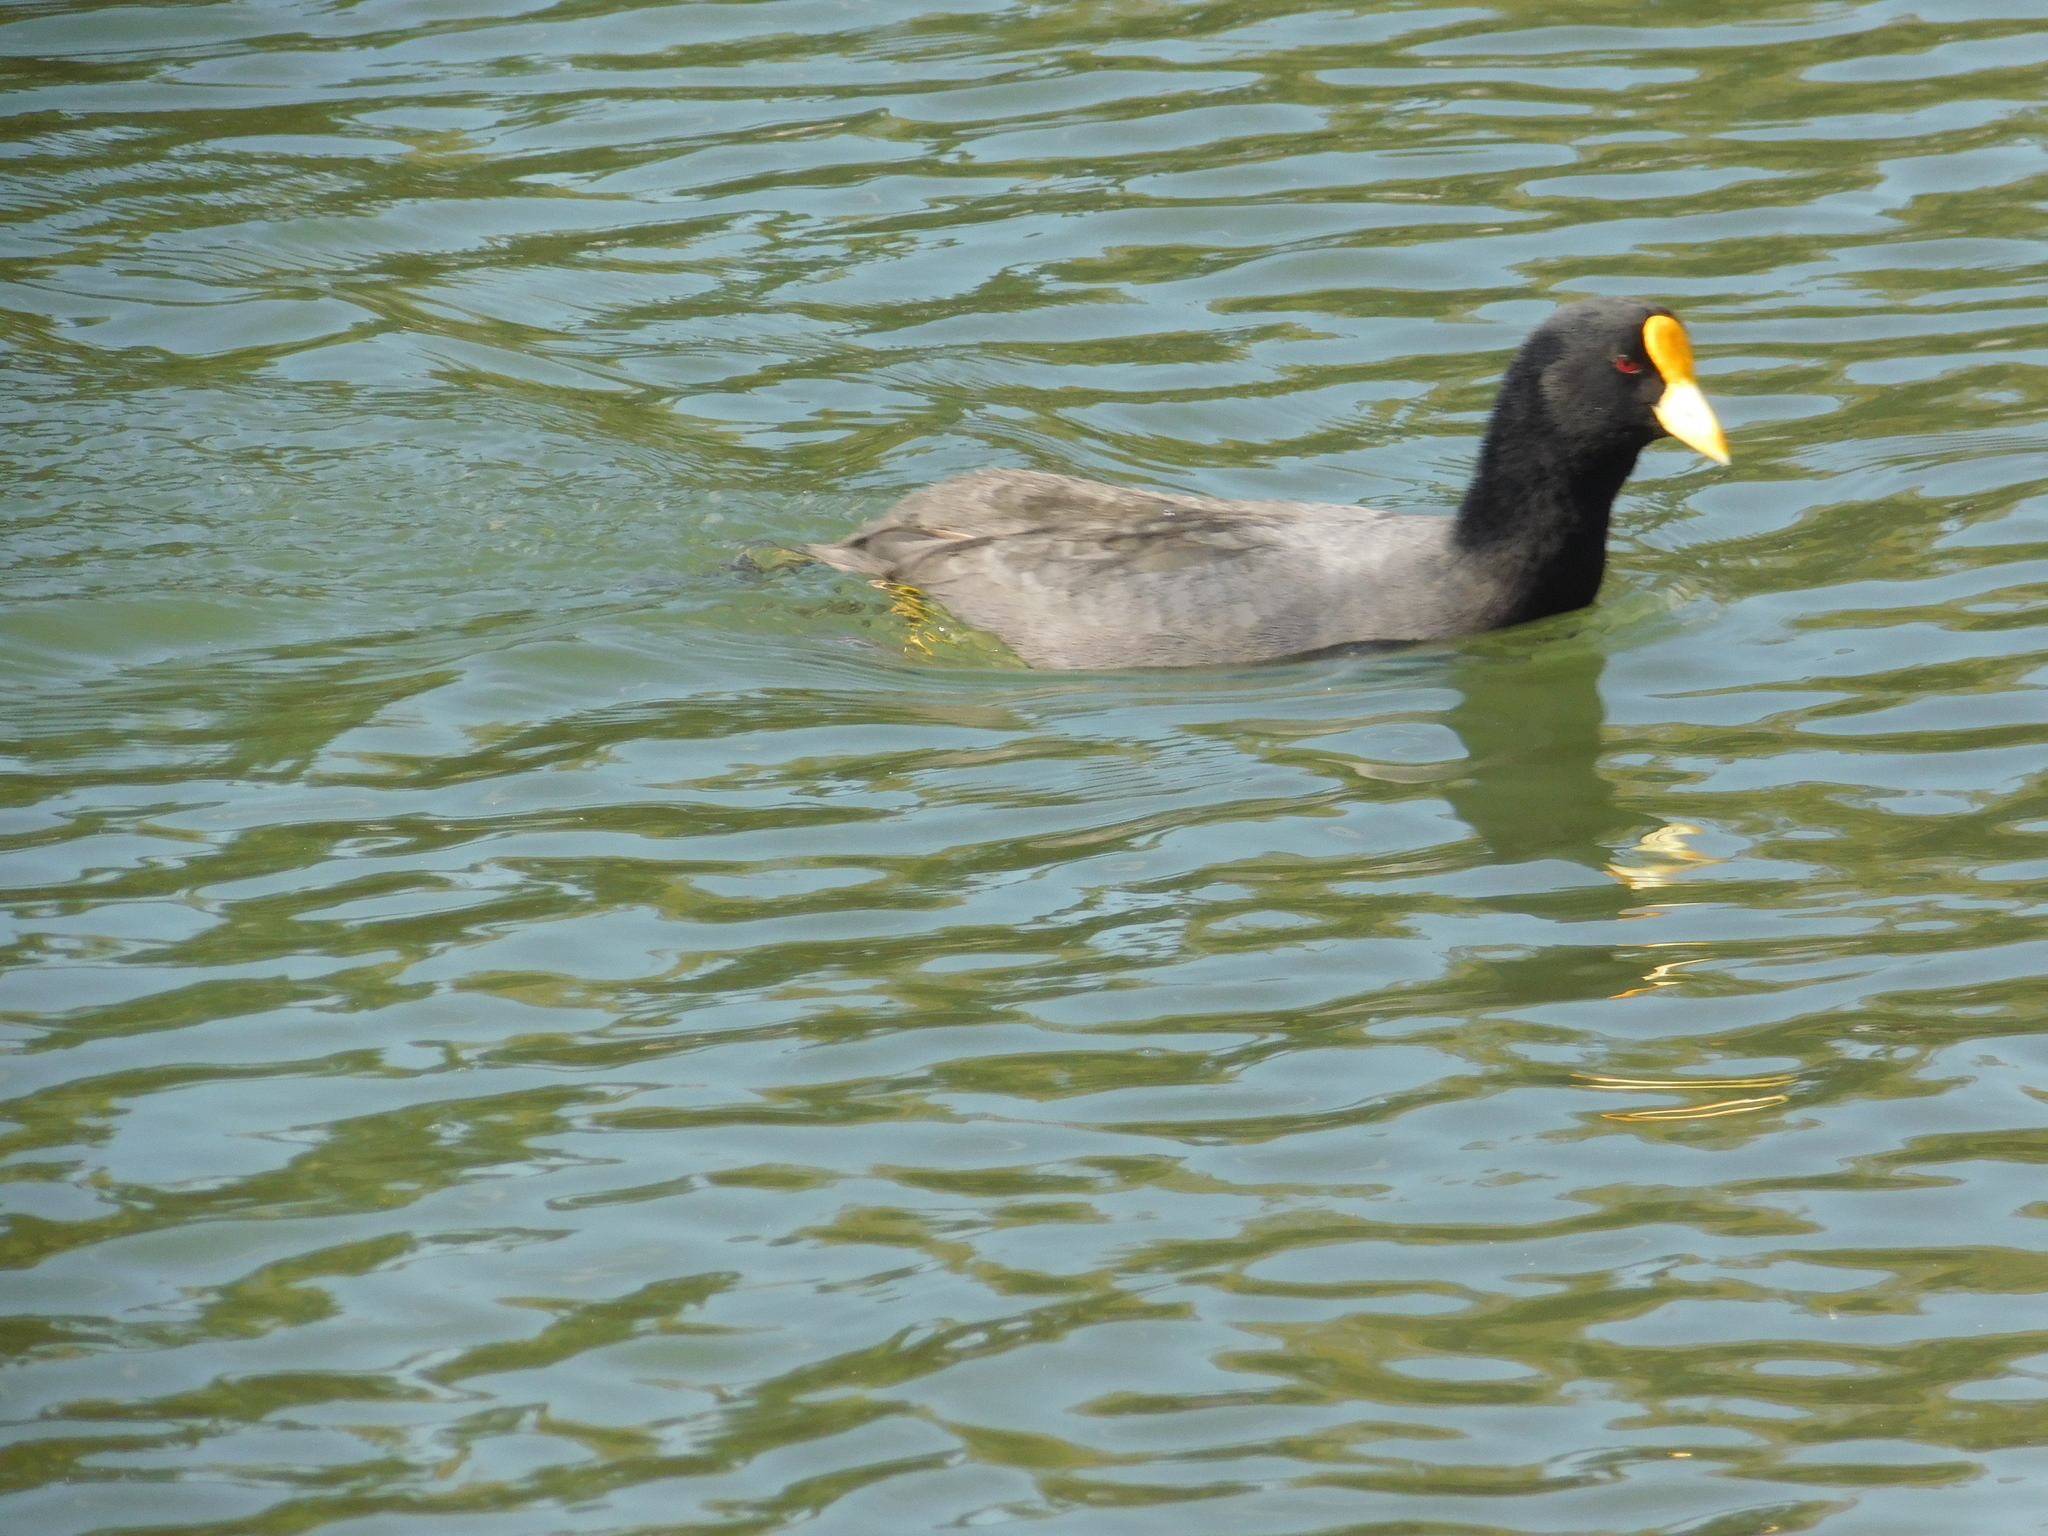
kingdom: Animalia
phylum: Chordata
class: Aves
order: Gruiformes
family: Rallidae
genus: Fulica
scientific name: Fulica leucoptera
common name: White-winged coot
